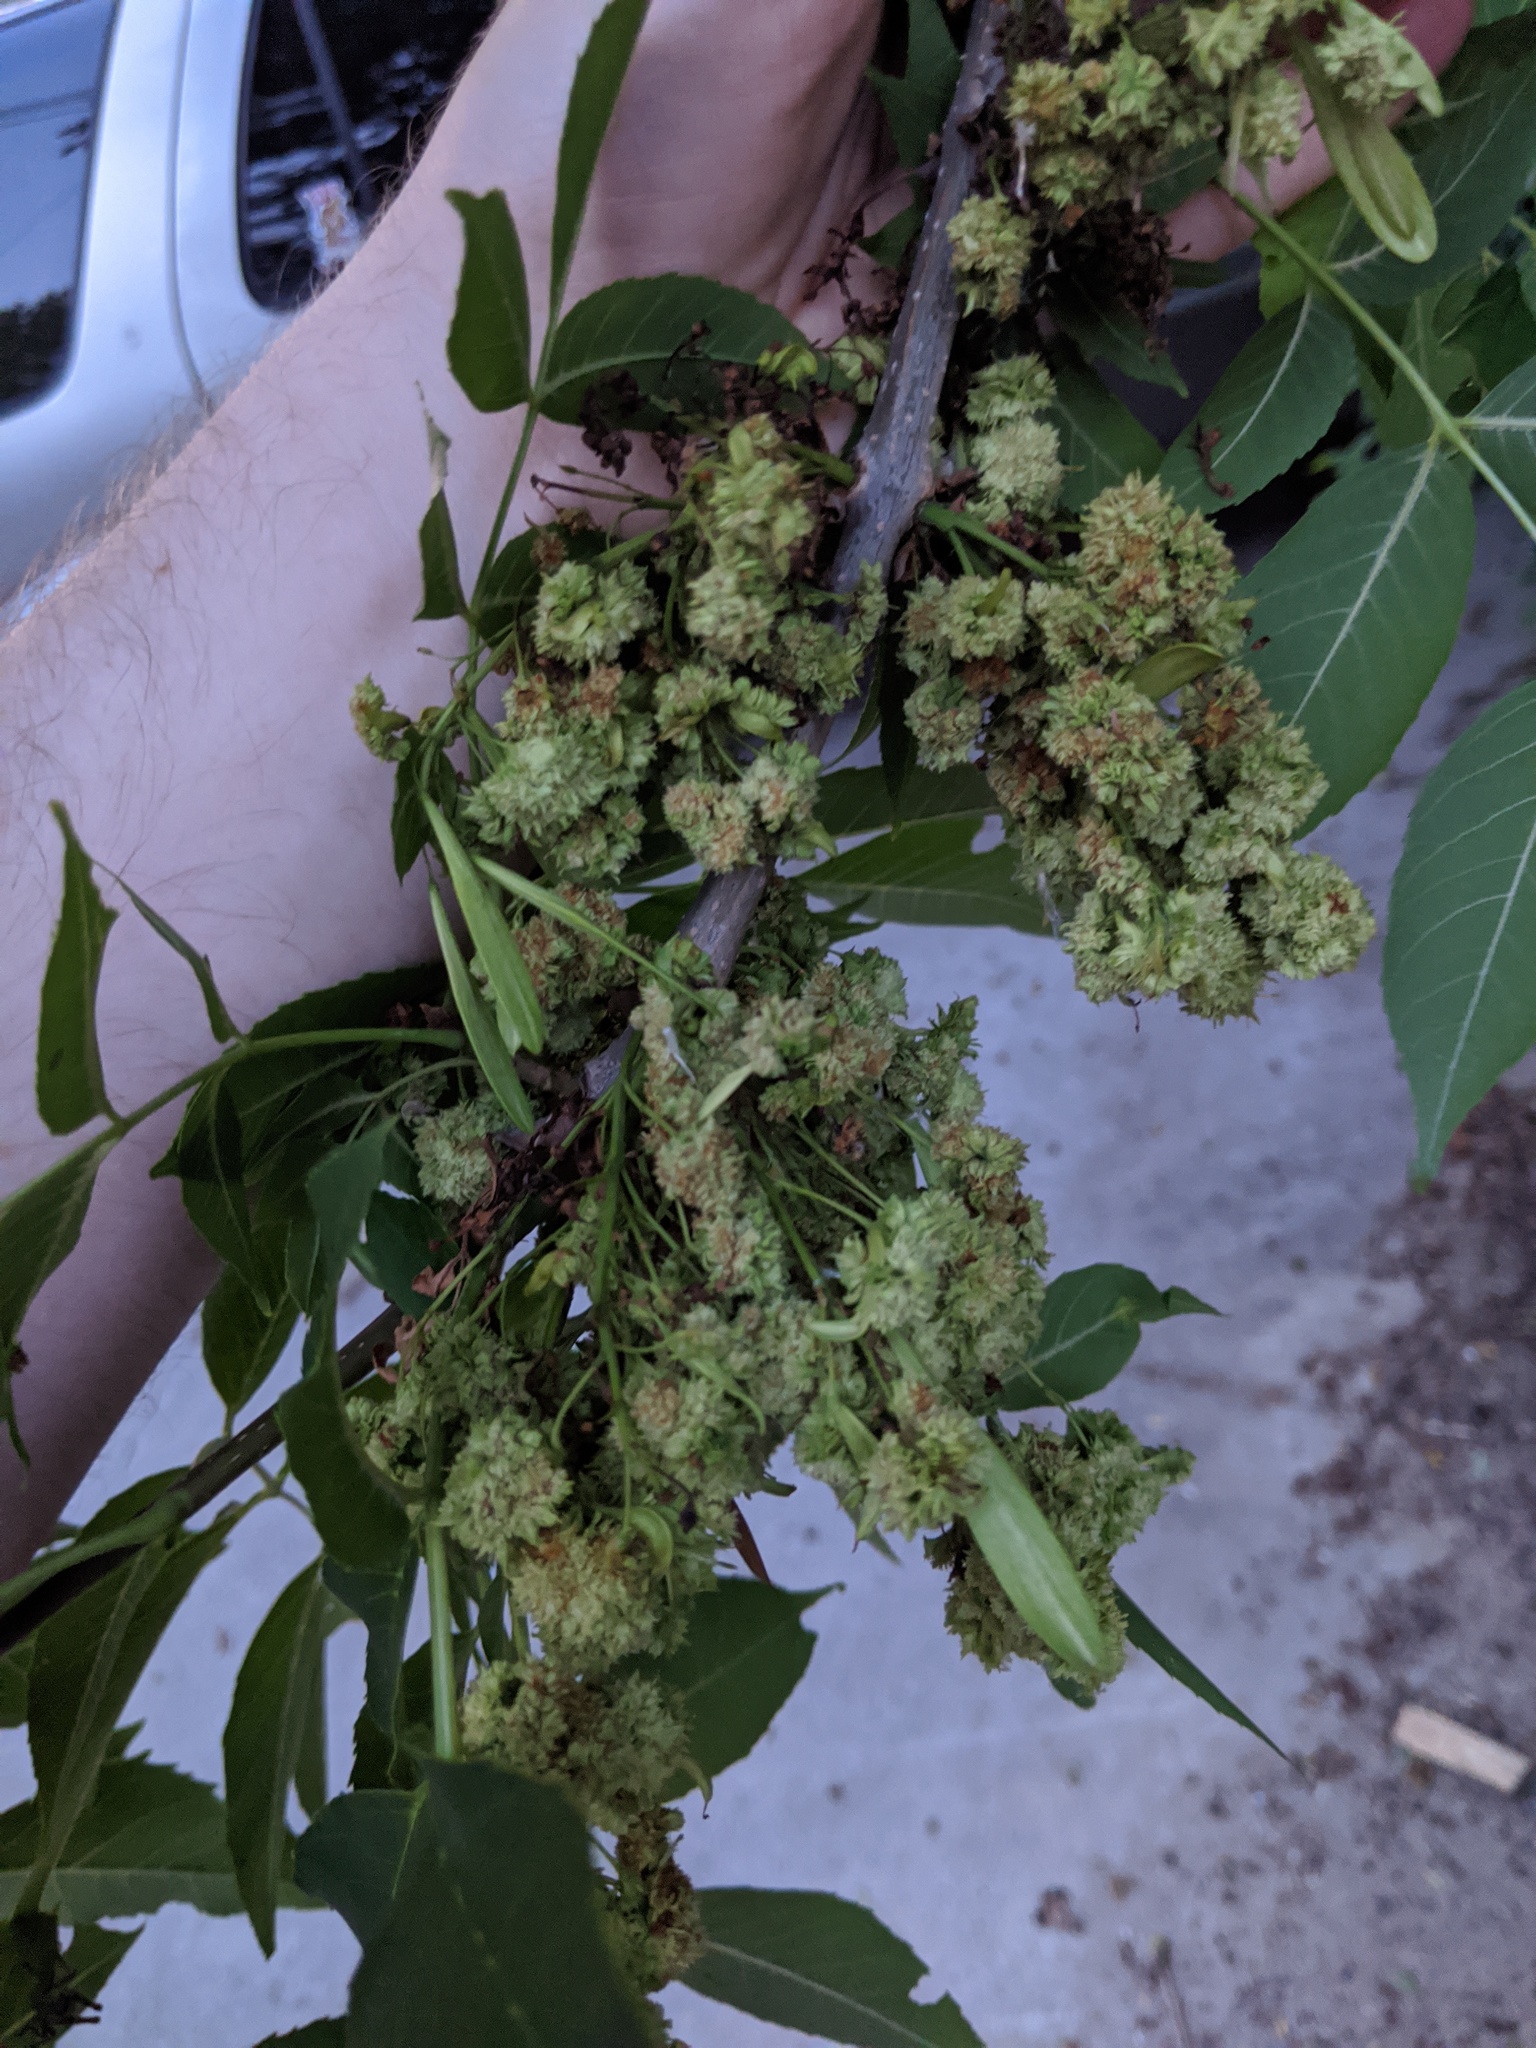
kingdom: Animalia
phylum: Arthropoda
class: Arachnida
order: Trombidiformes
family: Eriophyidae
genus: Aceria
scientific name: Aceria fraxiniflora
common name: Ash flower gall mite
